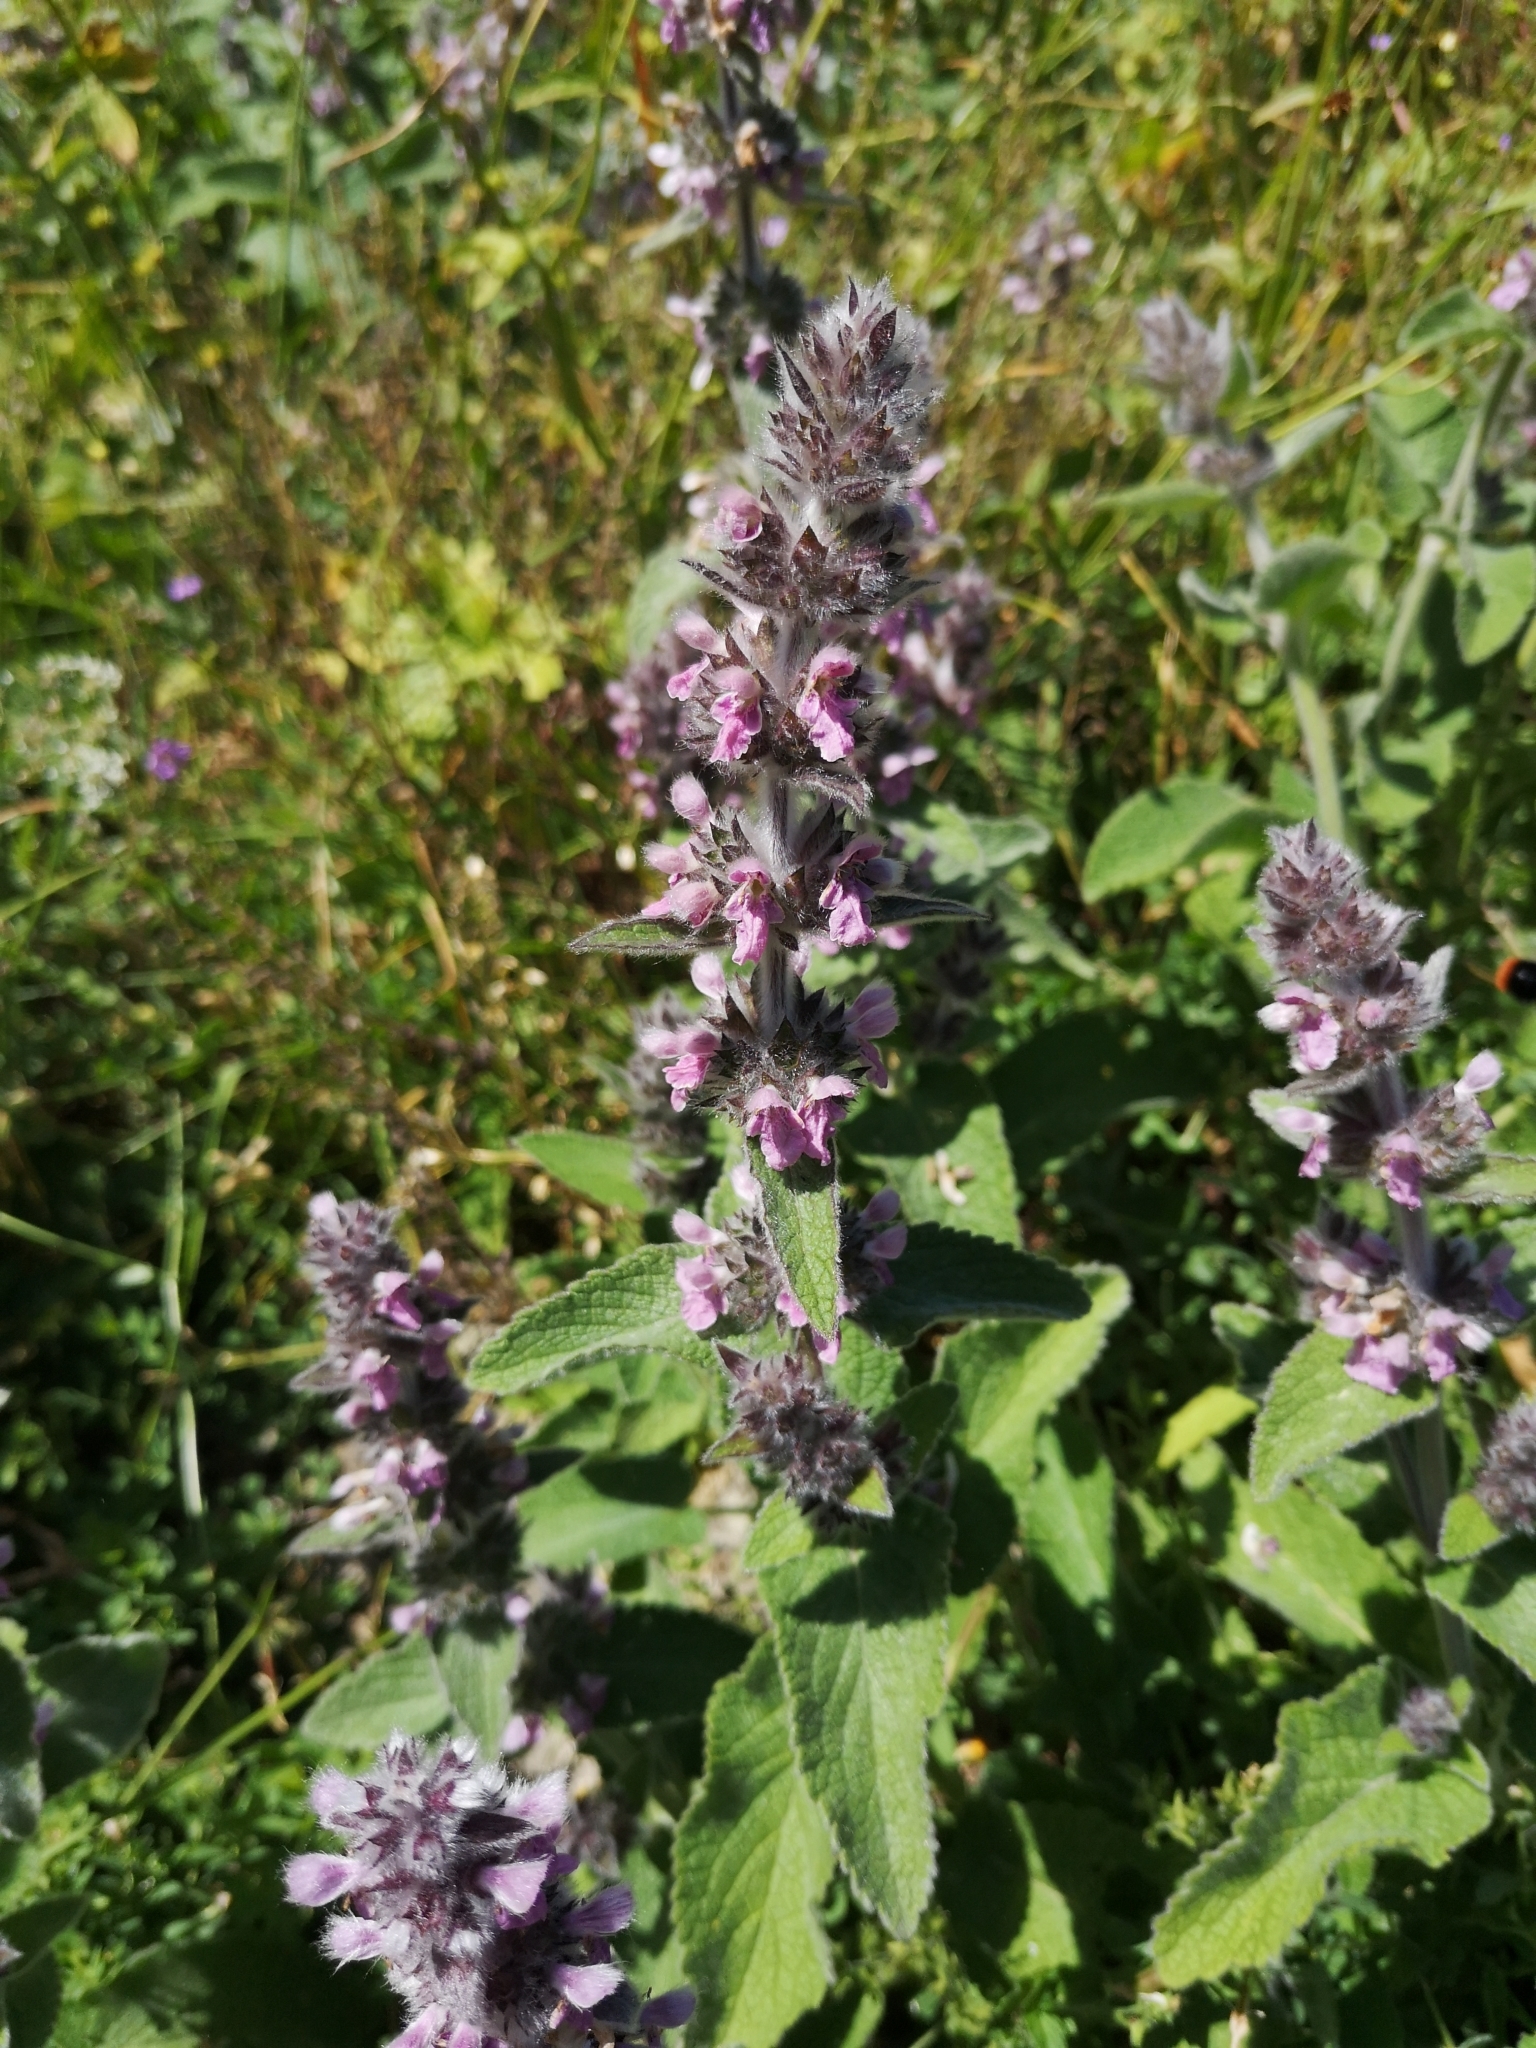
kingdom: Plantae
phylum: Tracheophyta
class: Magnoliopsida
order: Lamiales
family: Lamiaceae
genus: Stachys
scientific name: Stachys germanica
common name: Downy woundwort
